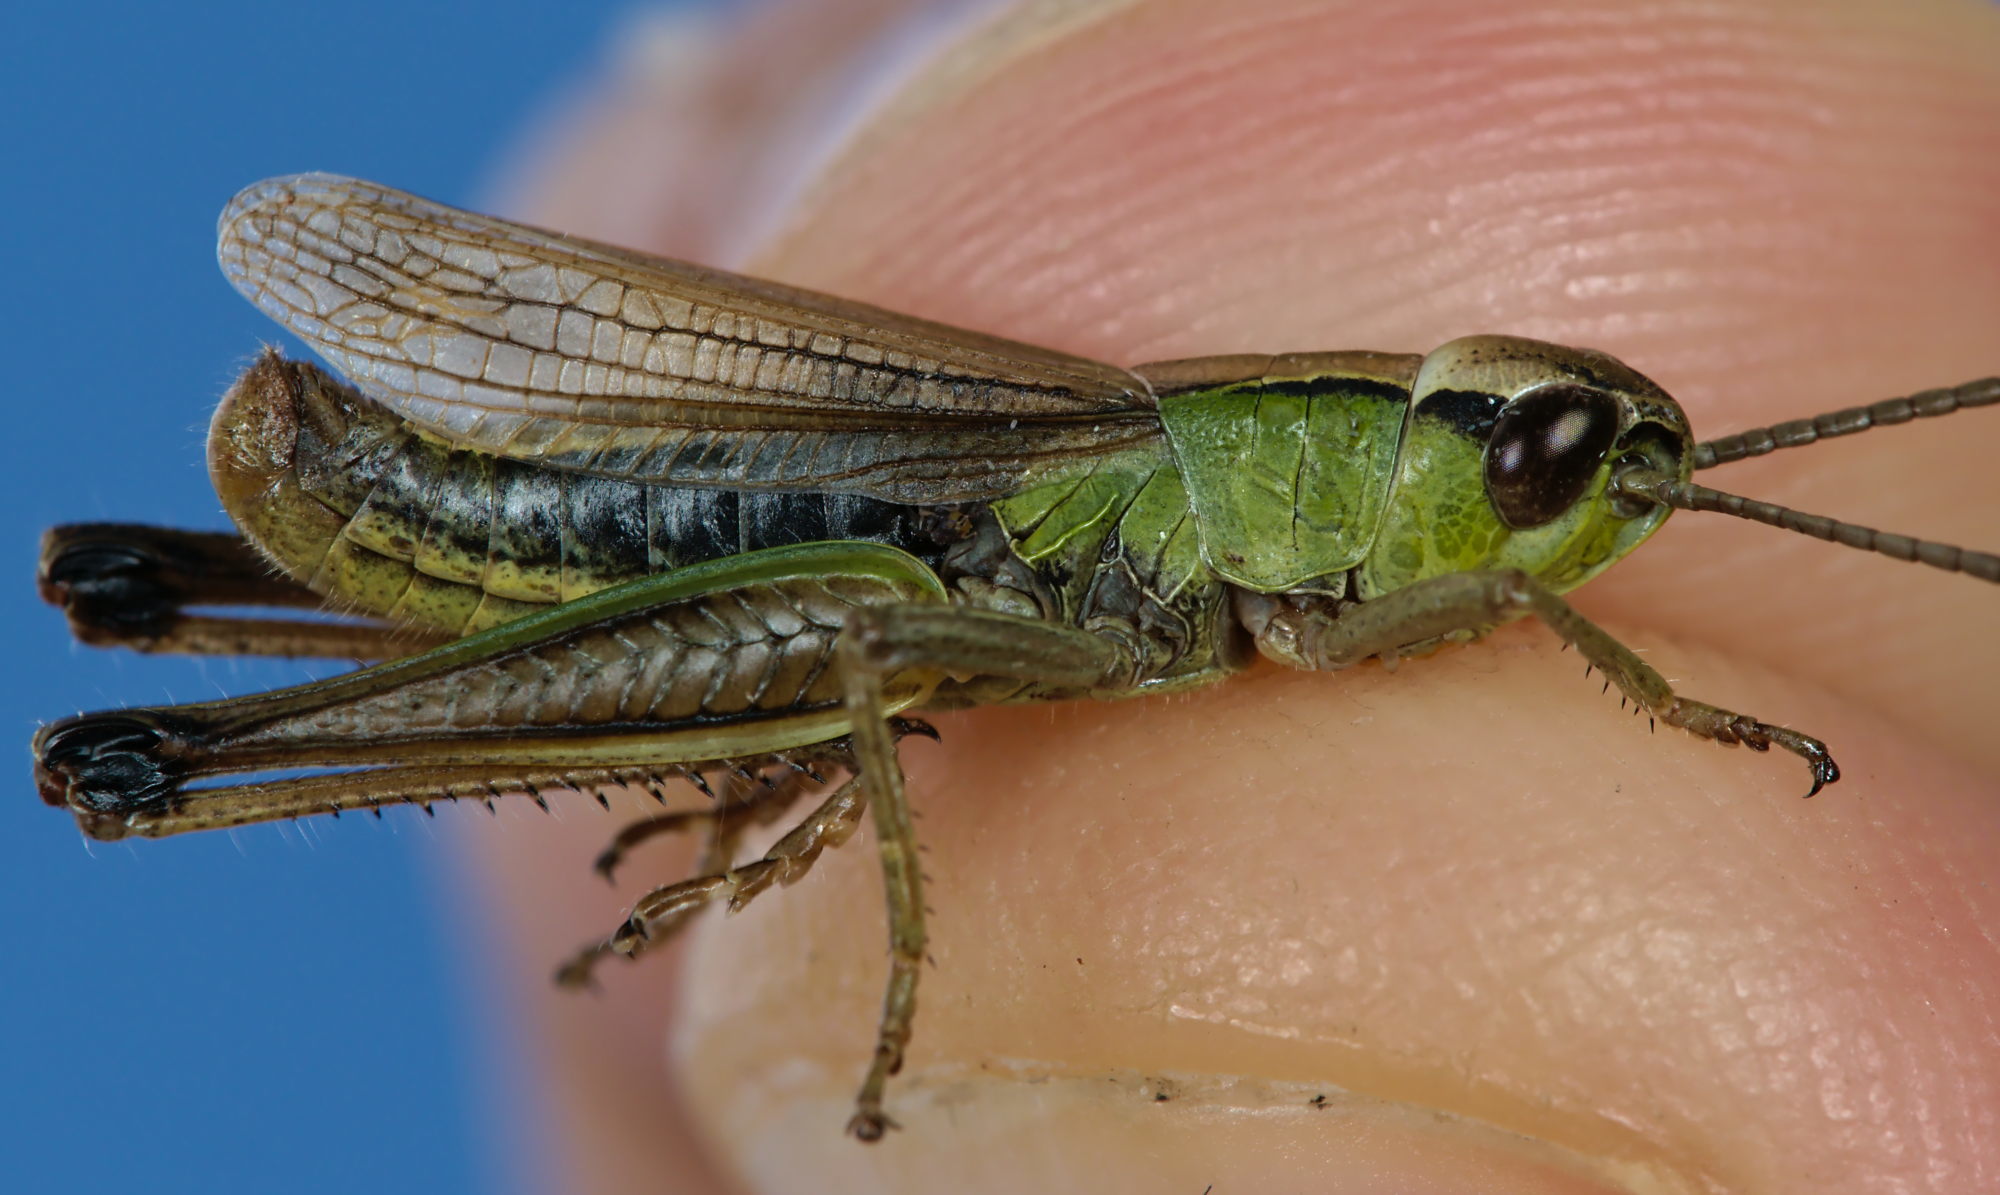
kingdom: Animalia
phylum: Arthropoda
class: Insecta
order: Orthoptera
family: Acrididae
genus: Pseudochorthippus
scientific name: Pseudochorthippus parallelus
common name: Meadow grasshopper
